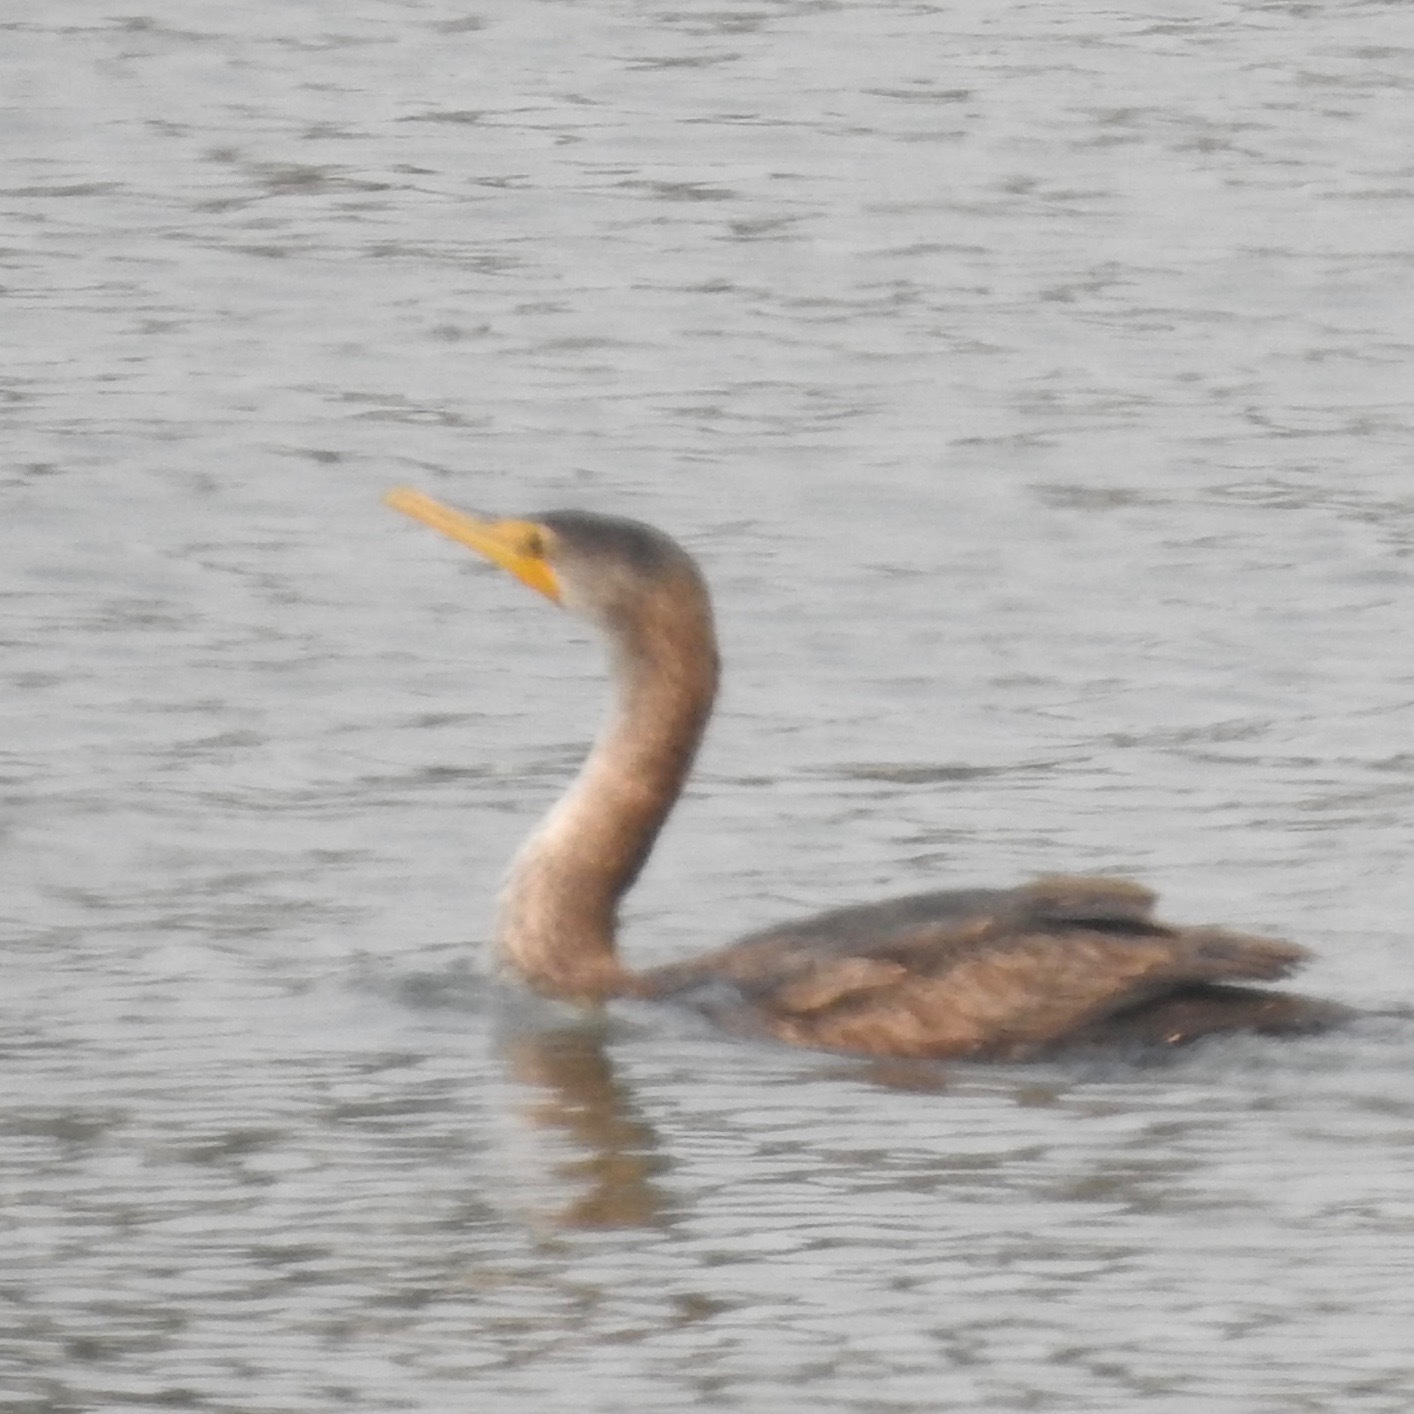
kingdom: Animalia
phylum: Chordata
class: Aves
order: Suliformes
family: Phalacrocoracidae
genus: Phalacrocorax
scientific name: Phalacrocorax auritus
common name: Double-crested cormorant
